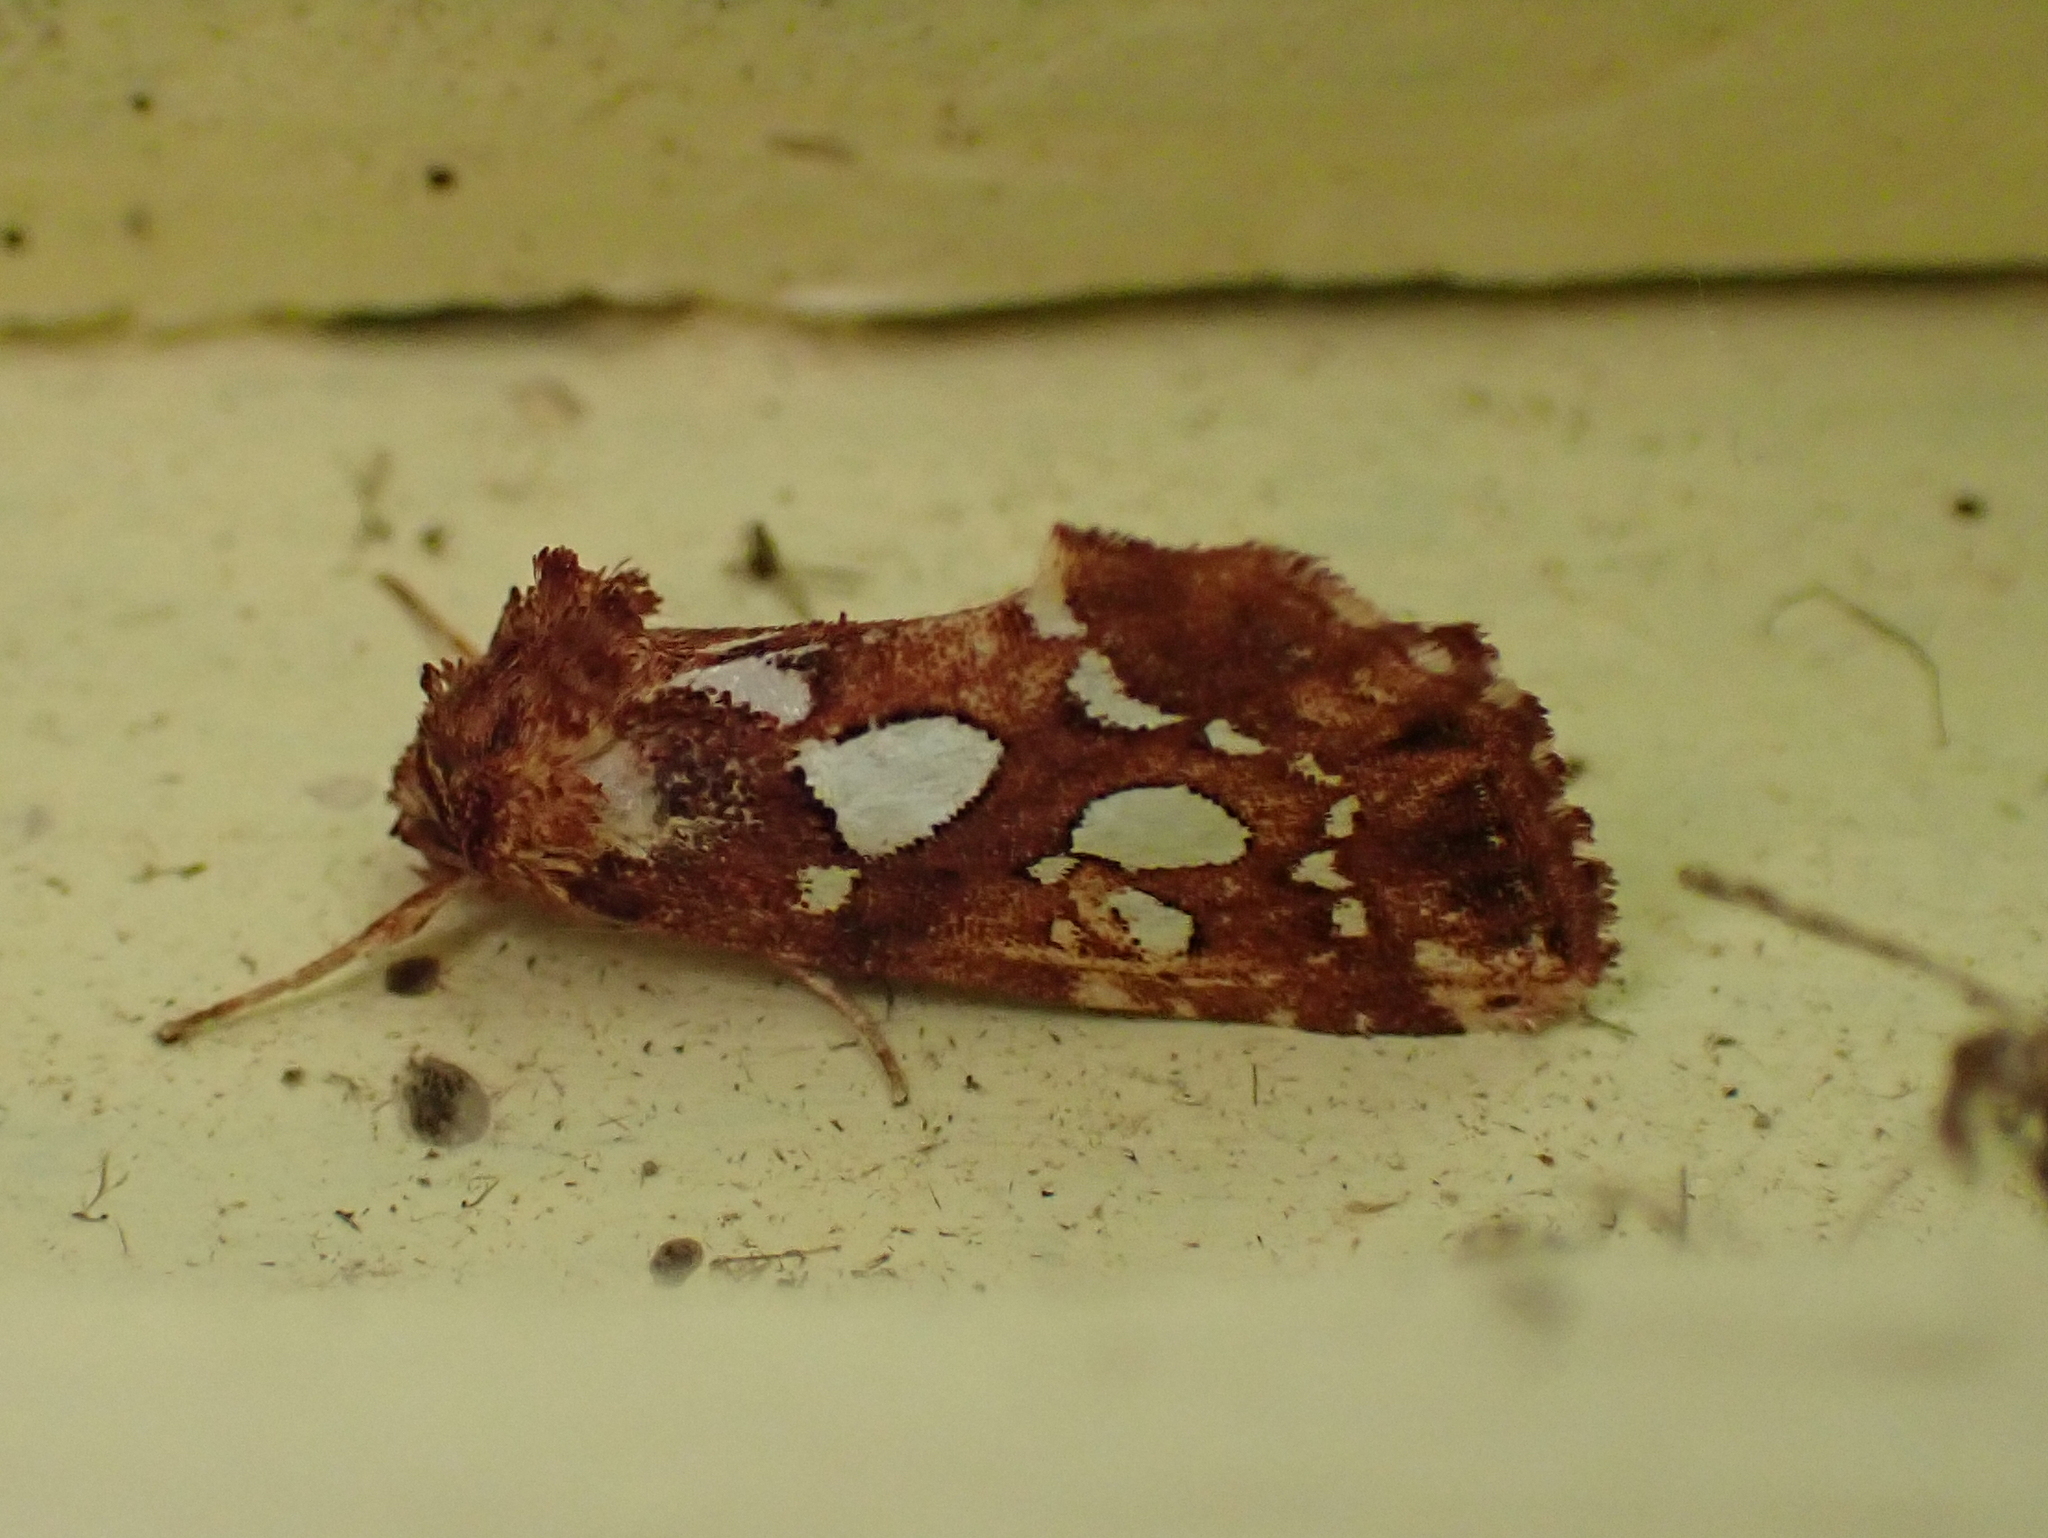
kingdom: Animalia
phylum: Arthropoda
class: Insecta
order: Lepidoptera
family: Noctuidae
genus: Callopistria
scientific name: Callopistria cordata
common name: Silver-spotted fern moth
